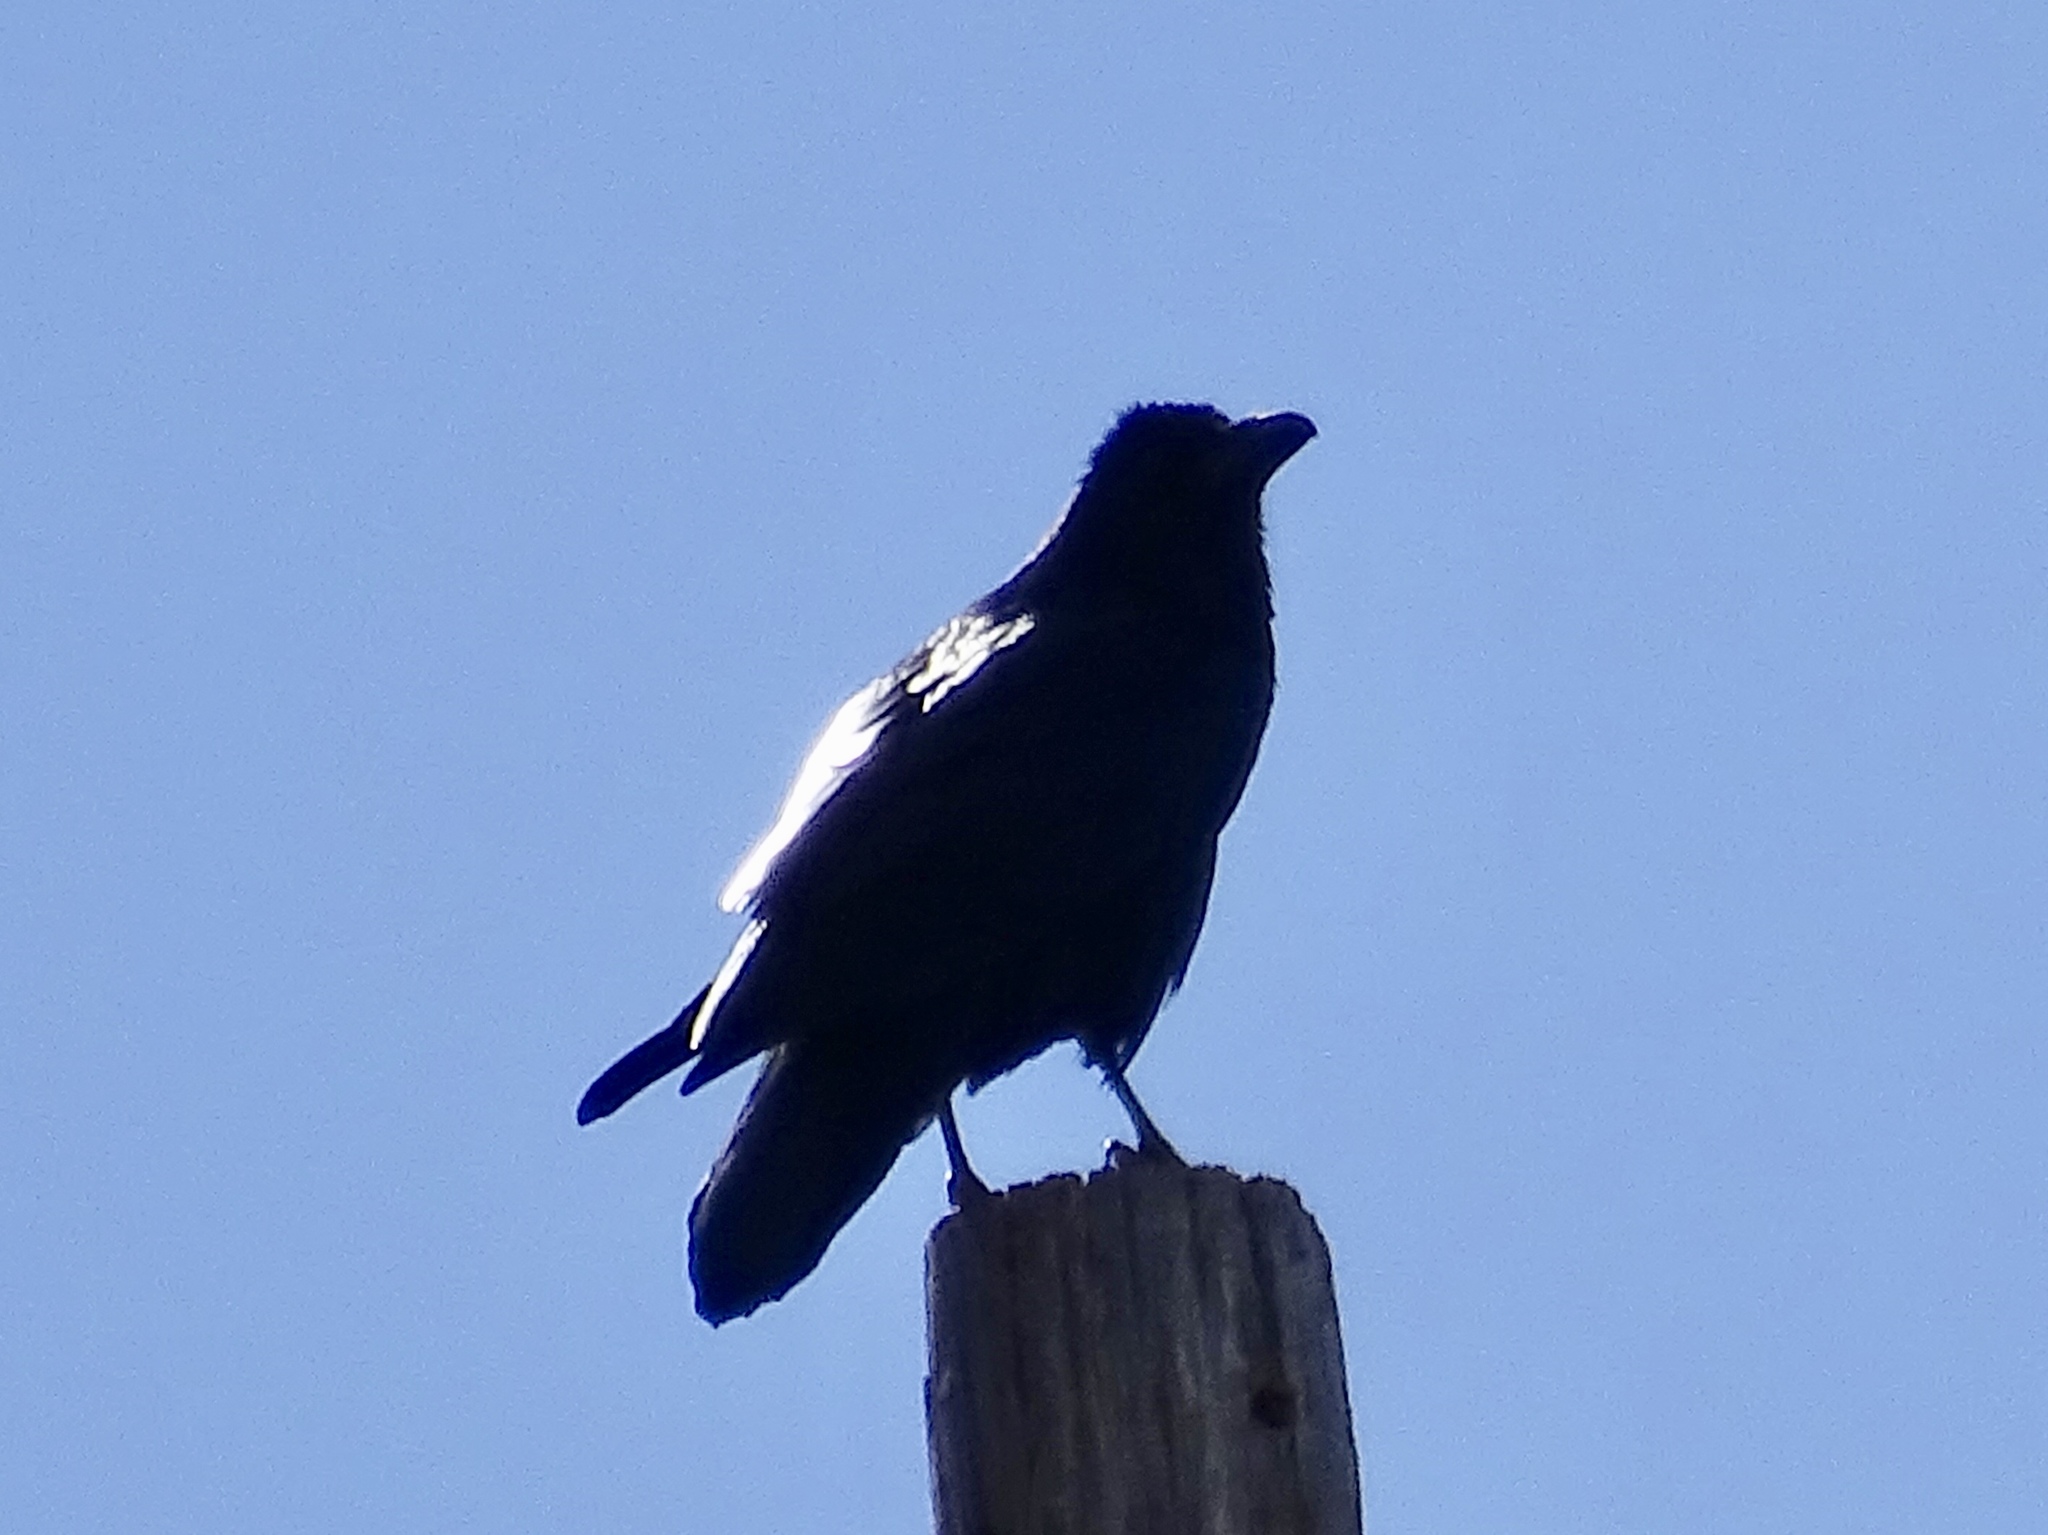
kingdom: Animalia
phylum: Chordata
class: Aves
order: Passeriformes
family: Corvidae
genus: Corvus
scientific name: Corvus corax
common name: Common raven
